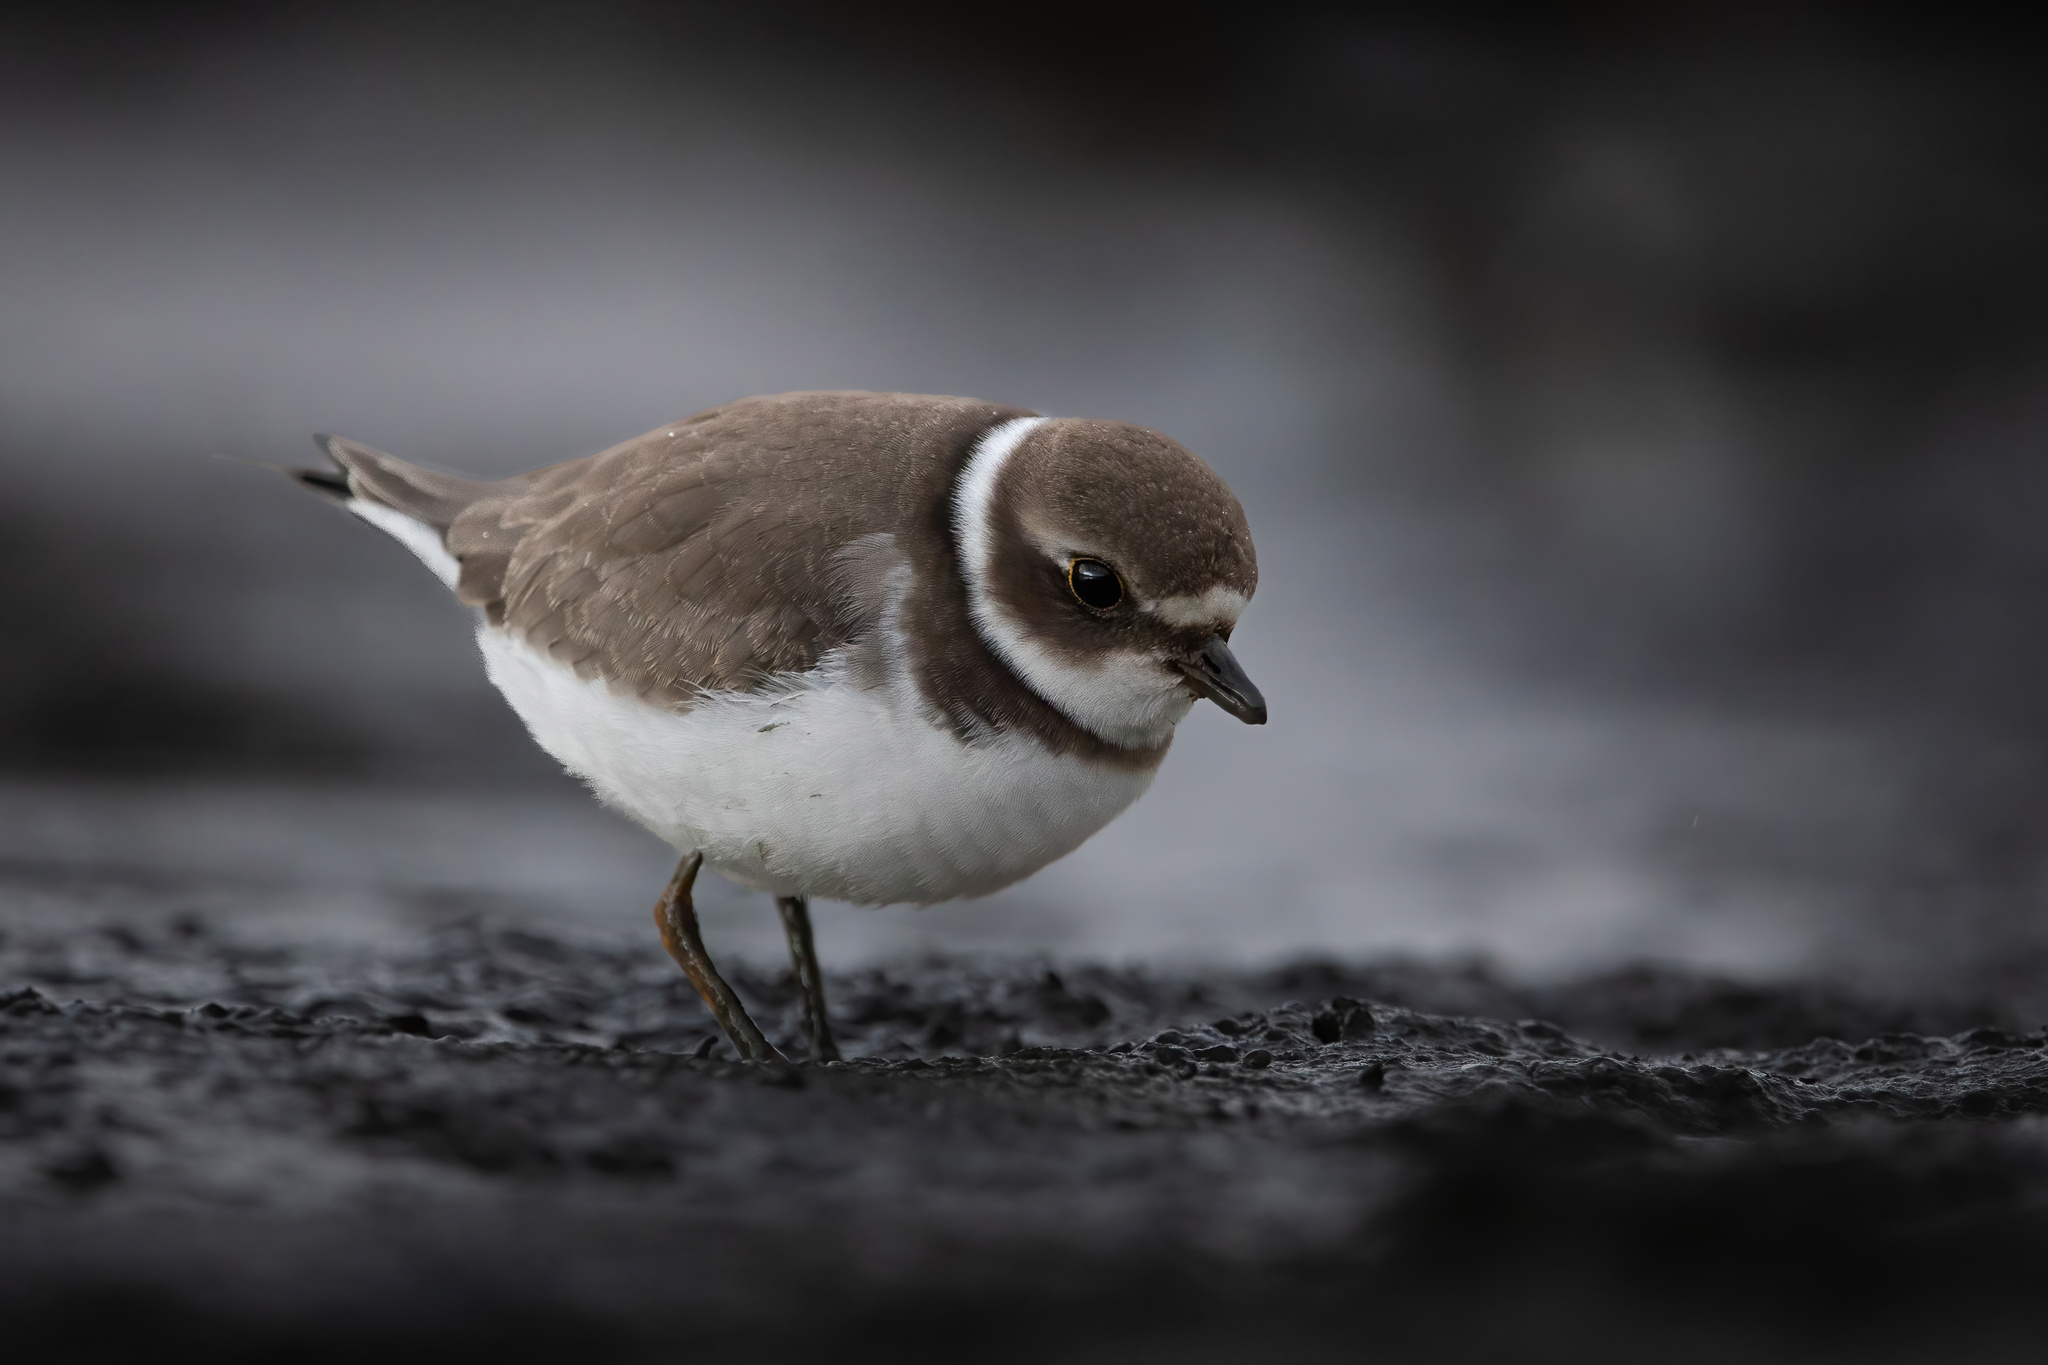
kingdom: Animalia
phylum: Chordata
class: Aves
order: Charadriiformes
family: Charadriidae
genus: Charadrius
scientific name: Charadrius semipalmatus
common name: Semipalmated plover
